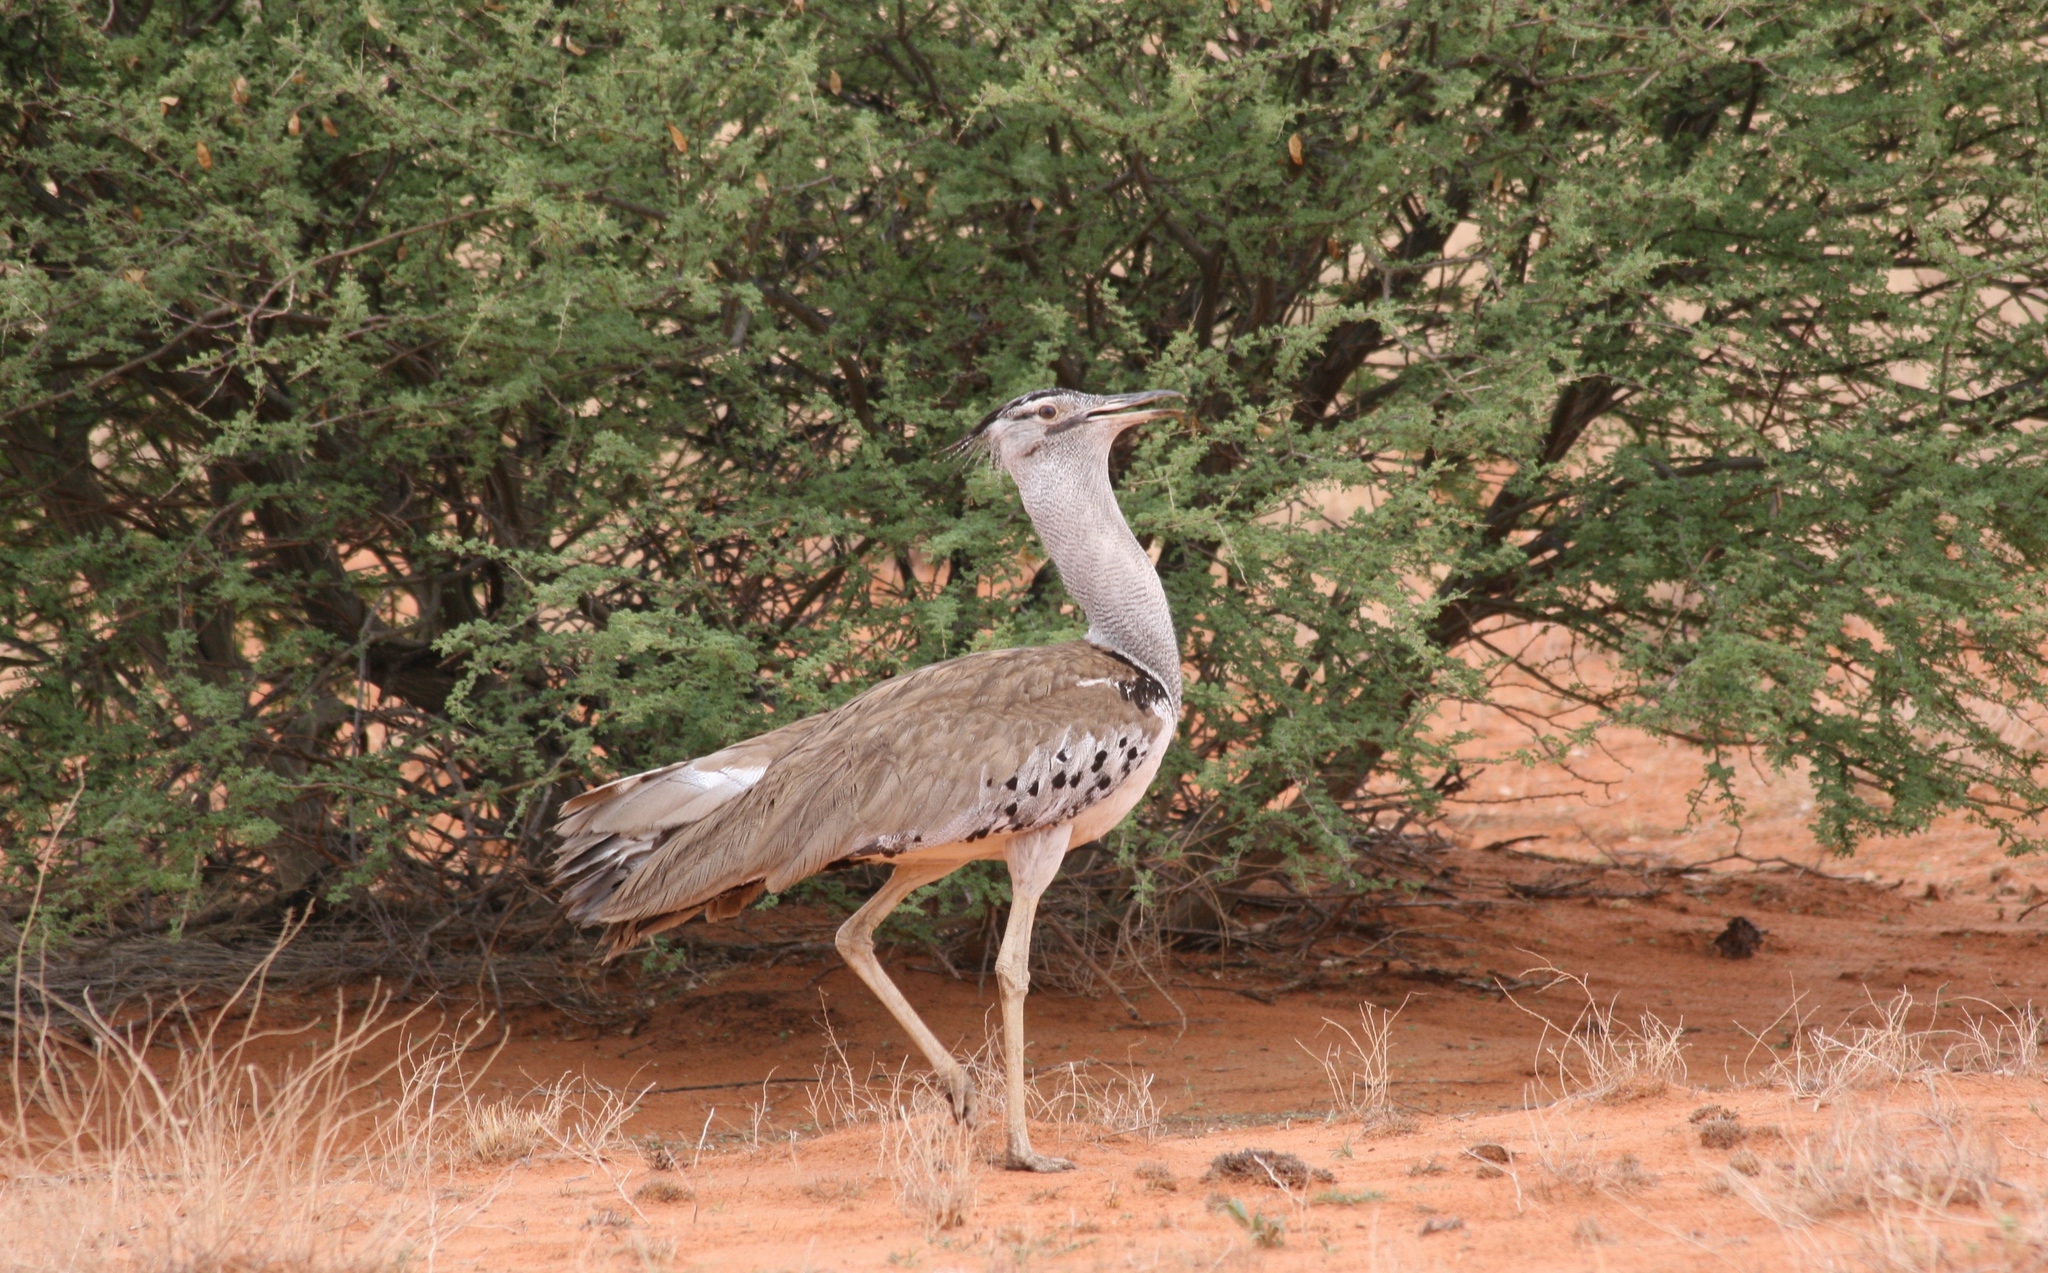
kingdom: Animalia
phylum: Chordata
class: Aves
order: Otidiformes
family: Otididae
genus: Ardeotis
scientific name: Ardeotis kori
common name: Kori bustard
